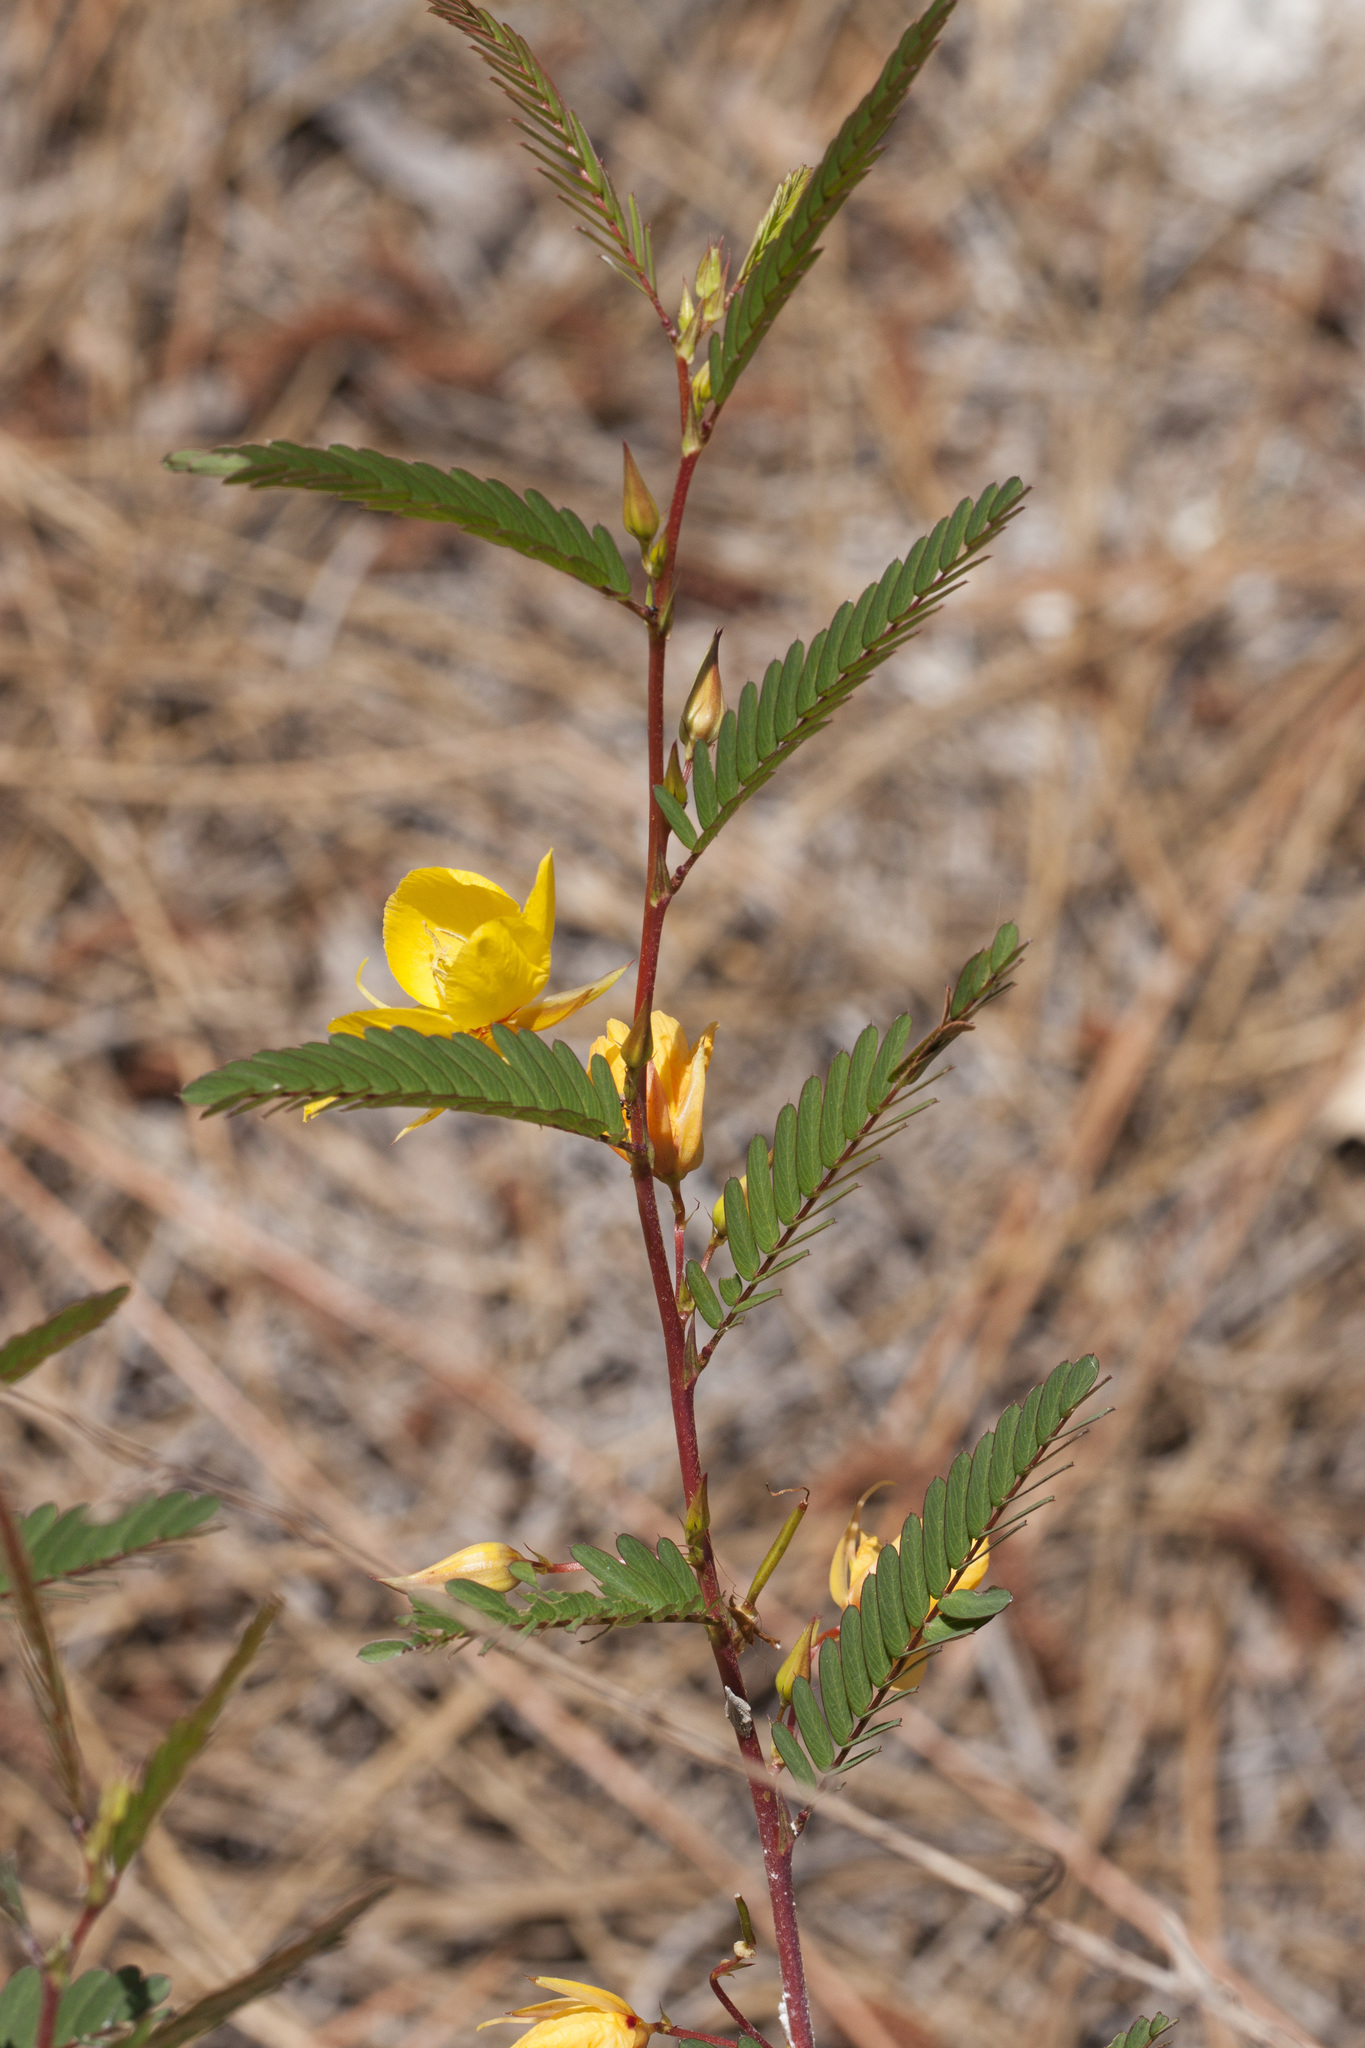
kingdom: Plantae
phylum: Tracheophyta
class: Magnoliopsida
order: Fabales
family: Fabaceae
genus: Chamaecrista
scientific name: Chamaecrista fasciculata
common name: Golden cassia
